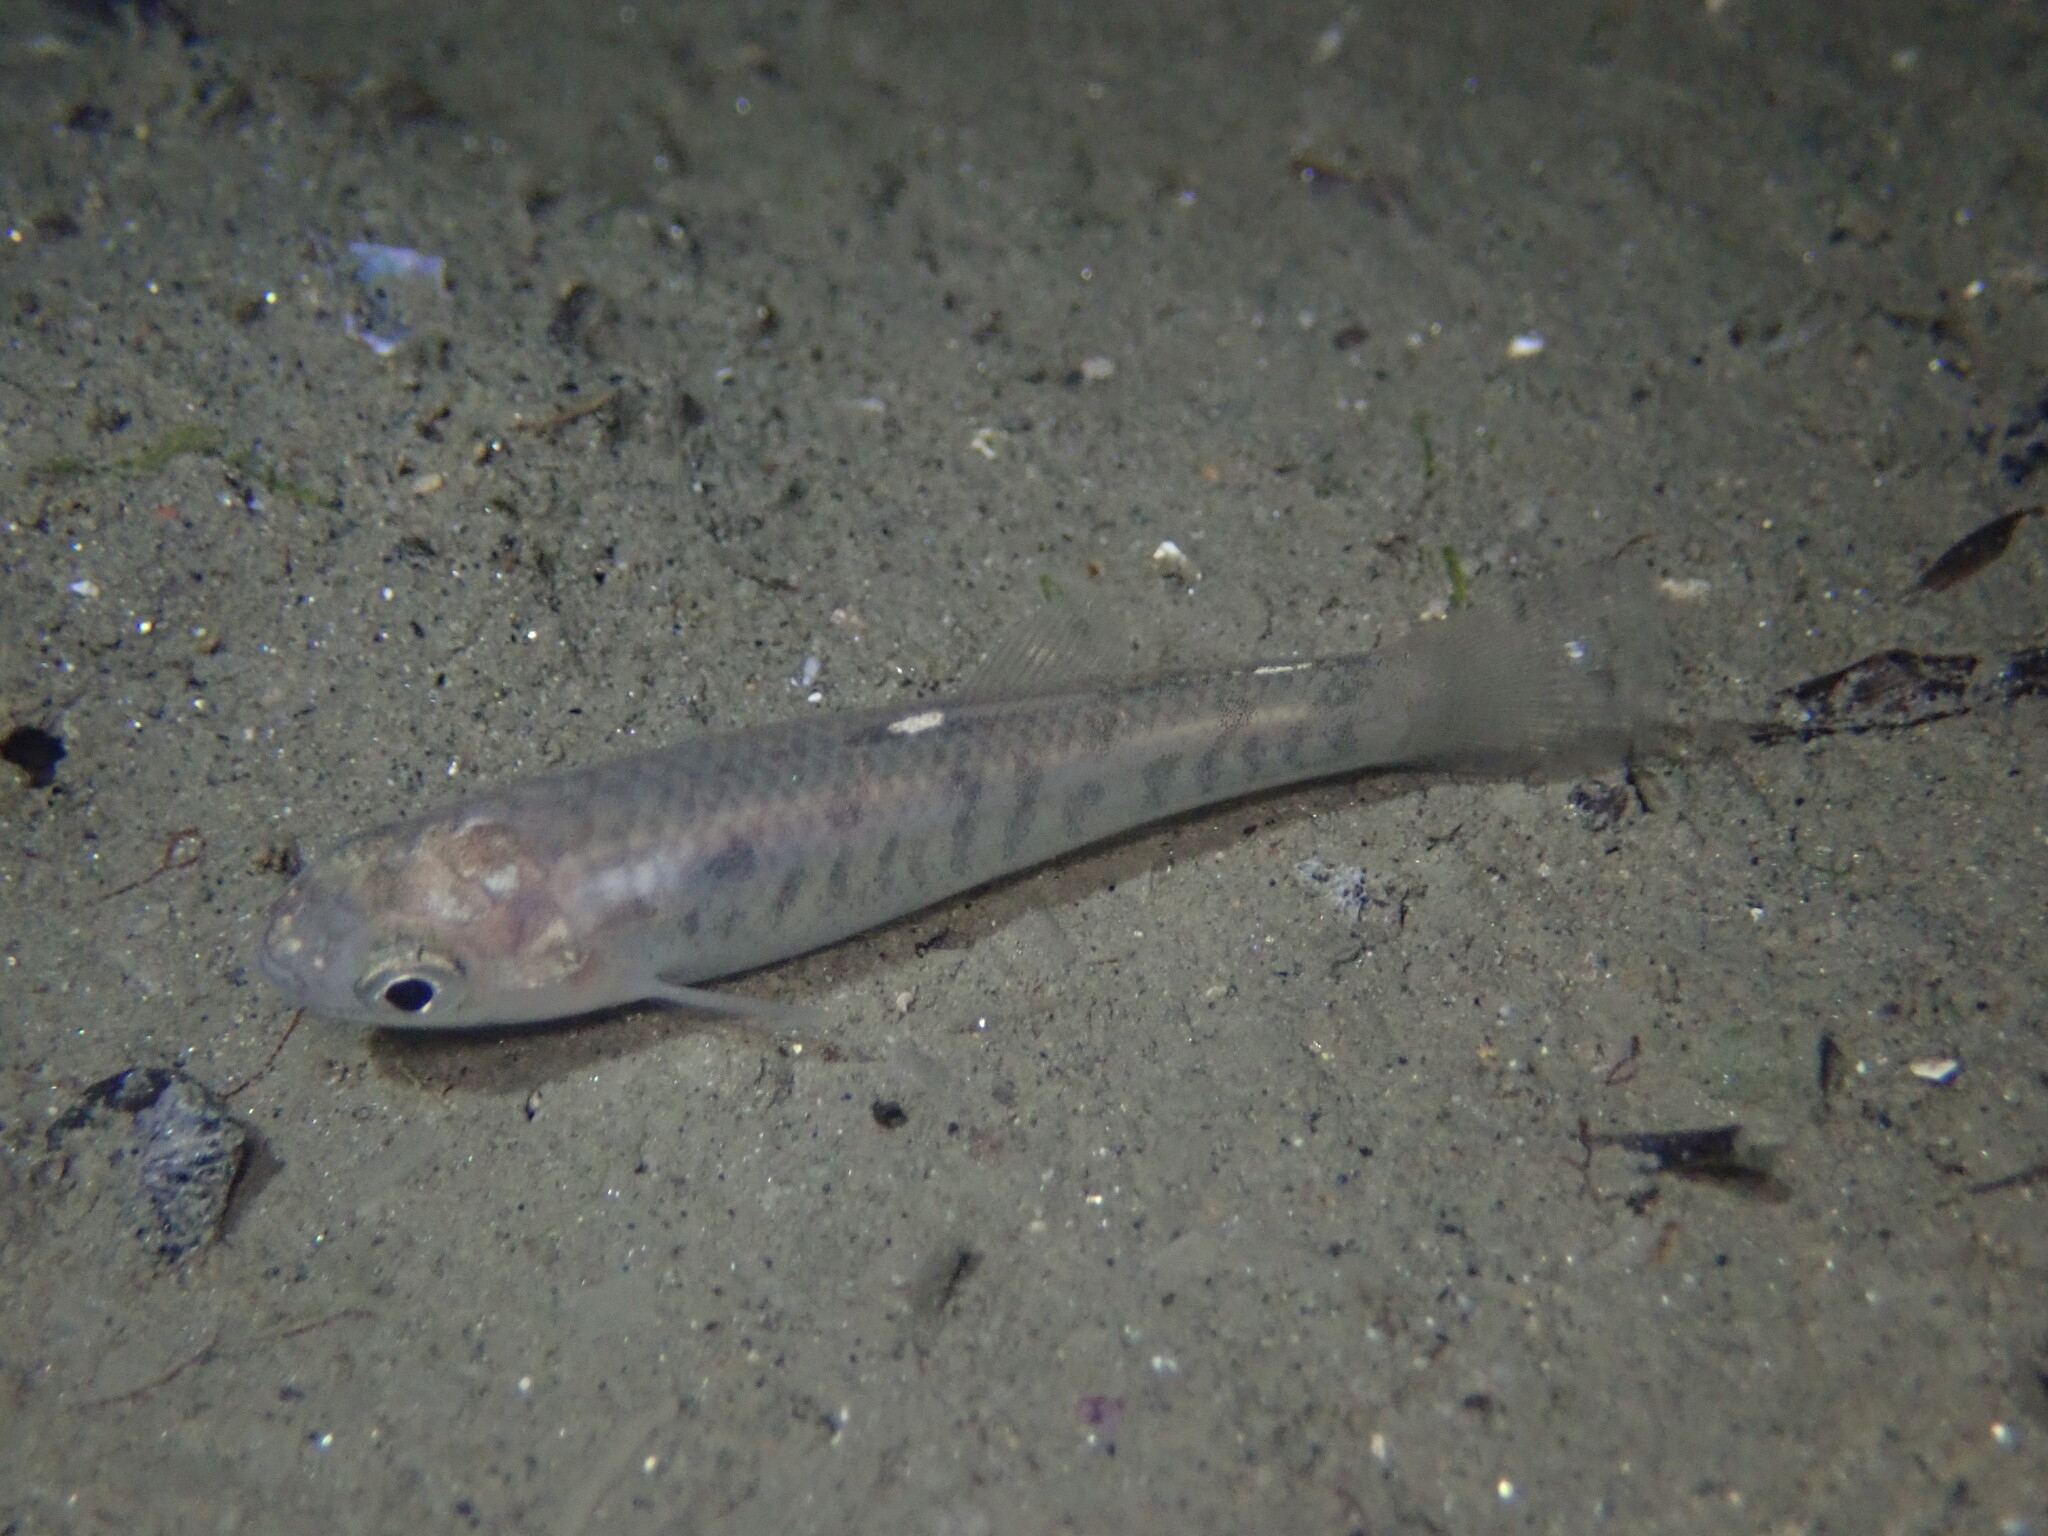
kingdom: Animalia
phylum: Chordata
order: Cyprinodontiformes
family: Fundulidae
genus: Fundulus
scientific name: Fundulus parvipinnis
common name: California killifish
